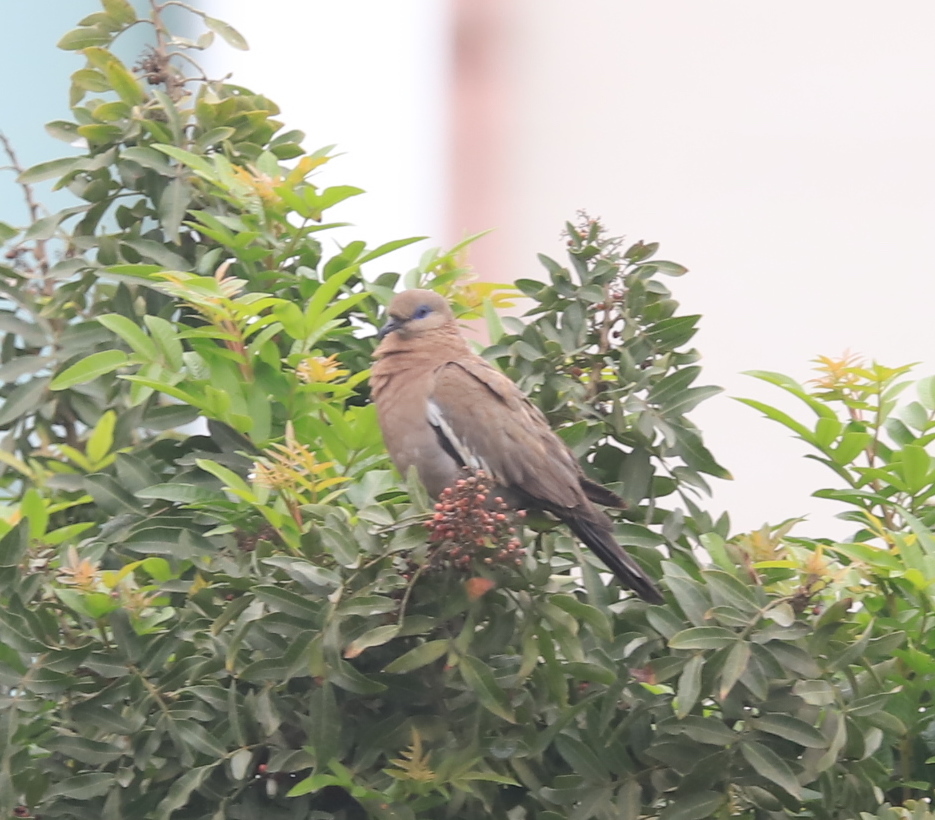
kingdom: Animalia
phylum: Chordata
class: Aves
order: Columbiformes
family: Columbidae
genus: Zenaida
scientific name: Zenaida meloda
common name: West peruvian dove
